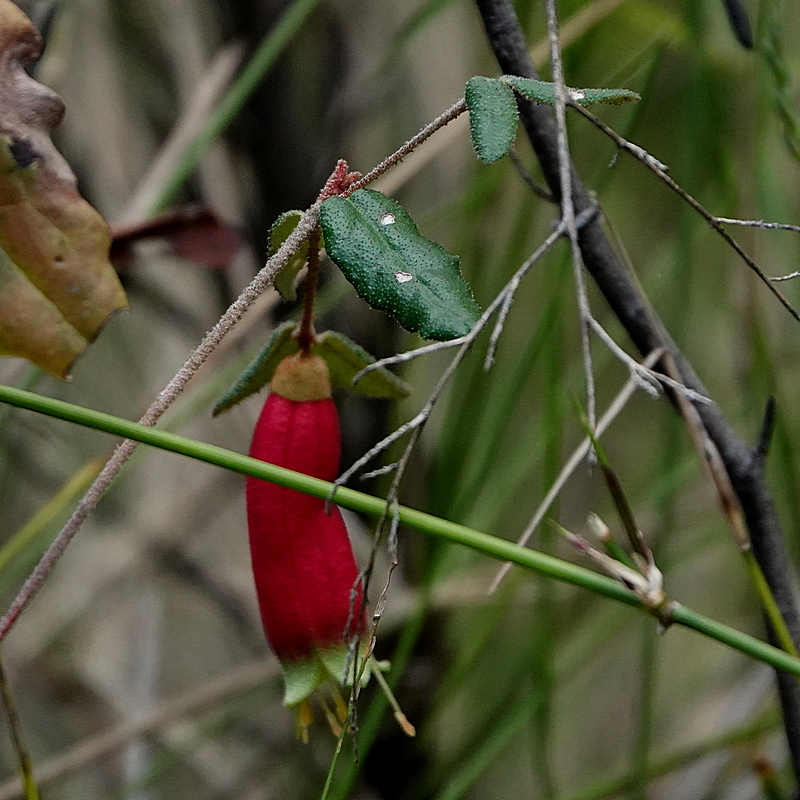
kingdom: Plantae
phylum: Tracheophyta
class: Magnoliopsida
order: Sapindales
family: Rutaceae
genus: Correa
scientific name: Correa reflexa
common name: Common correa
